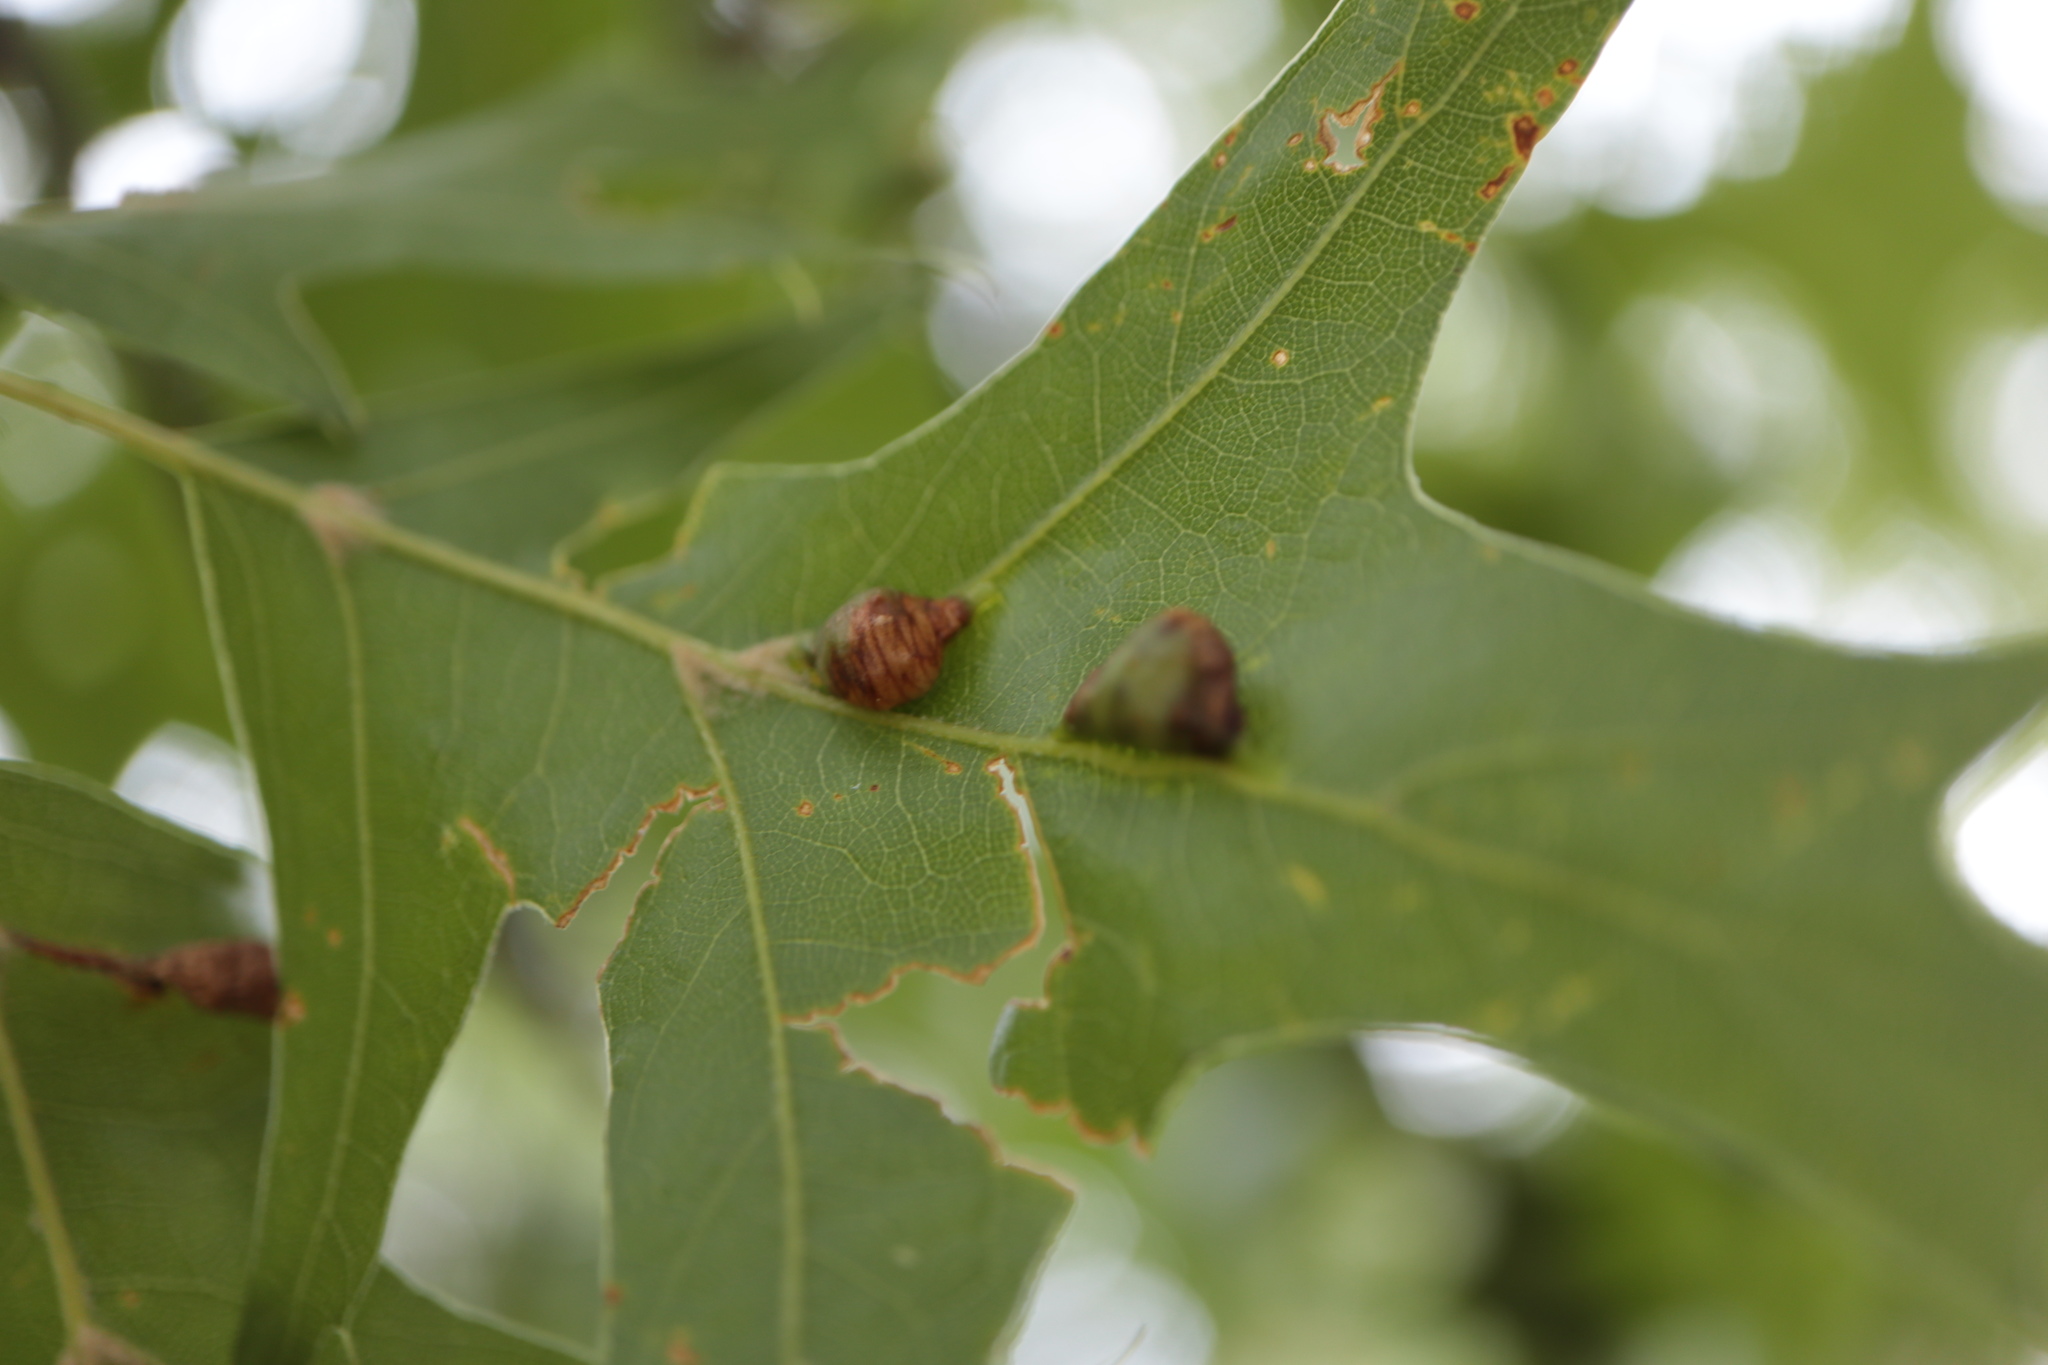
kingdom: Animalia
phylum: Arthropoda
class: Insecta
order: Diptera
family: Cecidomyiidae
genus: Macrodiplosis
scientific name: Macrodiplosis majalis
